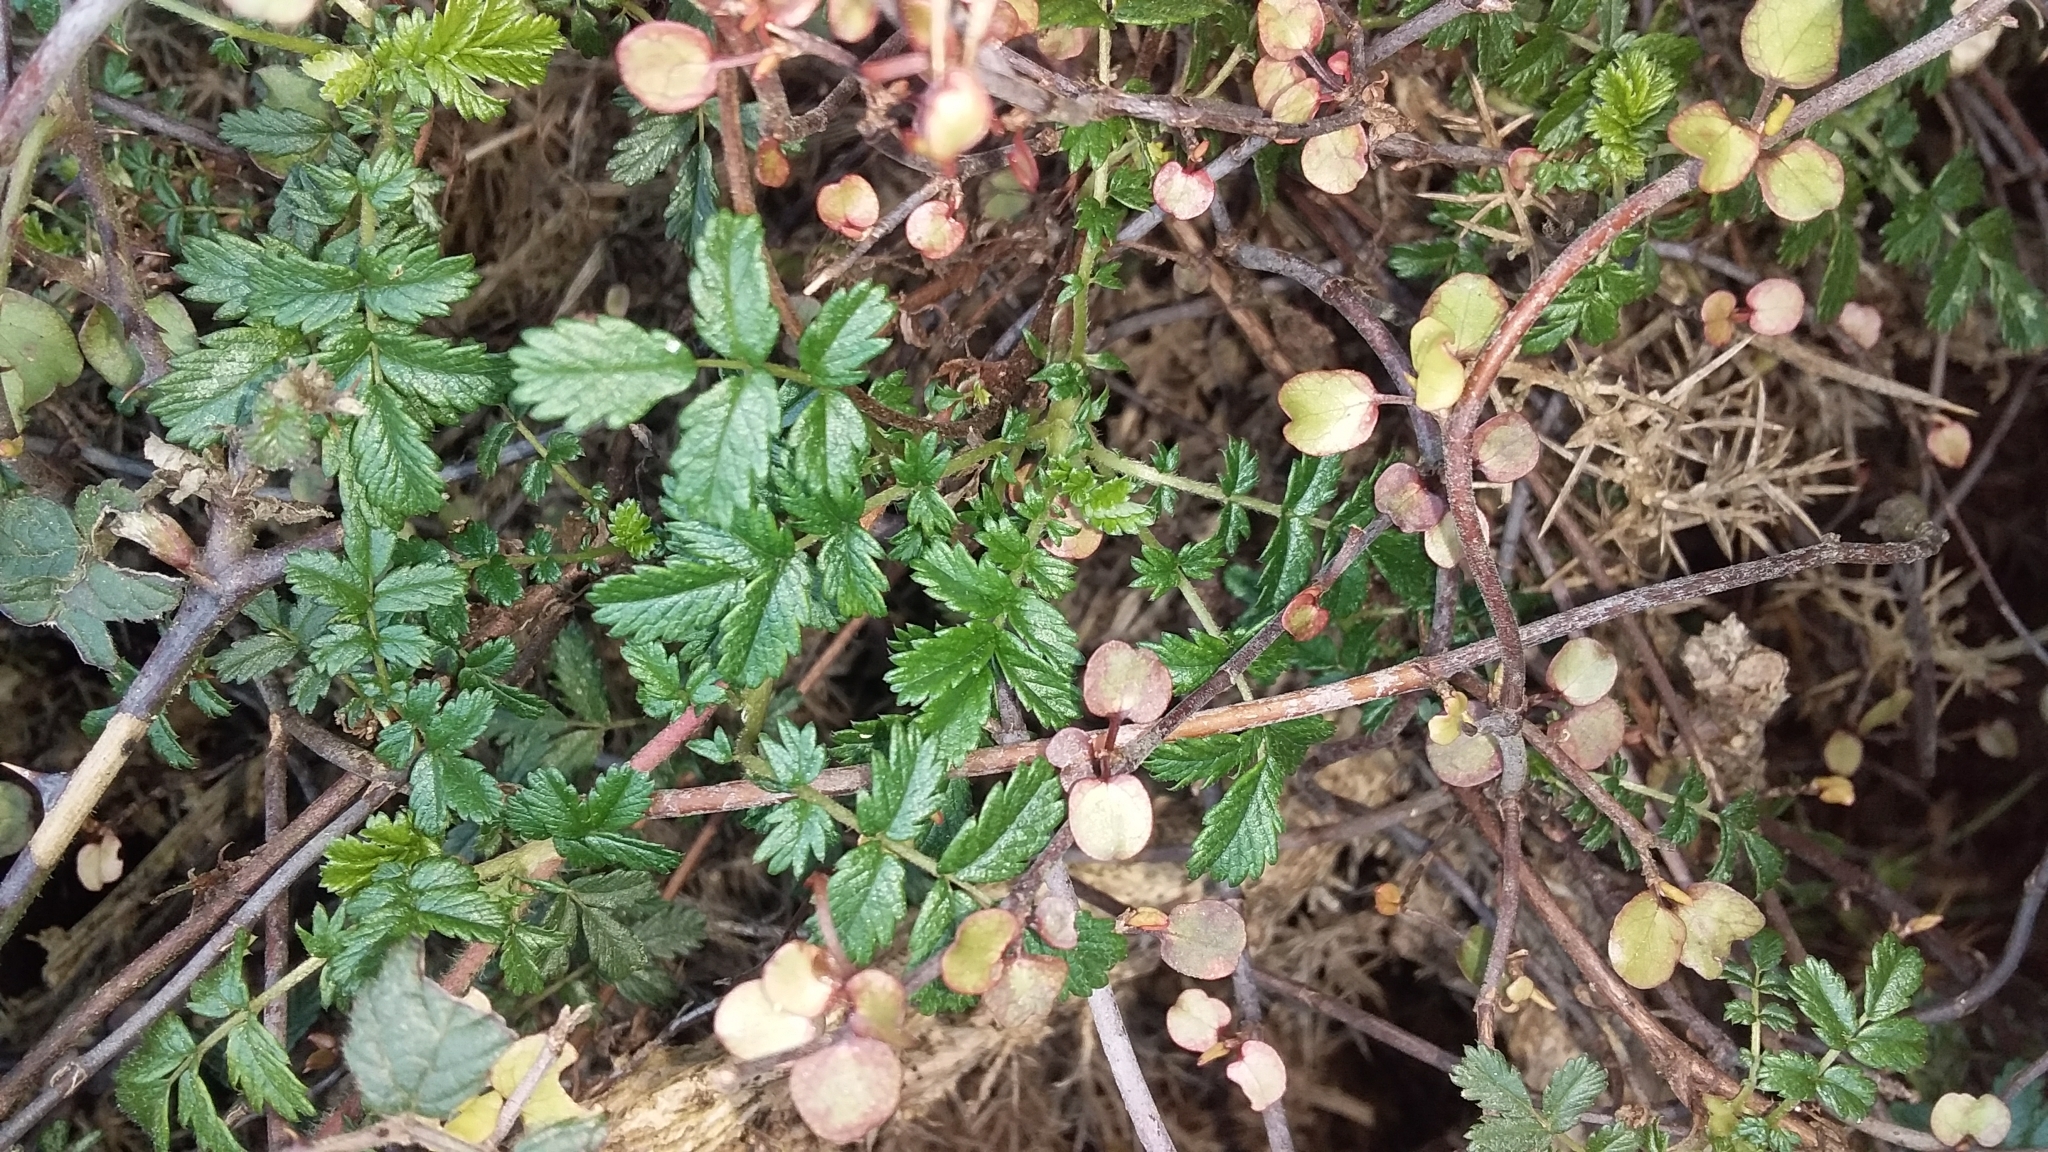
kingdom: Plantae
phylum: Tracheophyta
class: Magnoliopsida
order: Rosales
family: Rosaceae
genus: Acaena
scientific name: Acaena novae-zelandiae
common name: Pirri-pirri-bur
